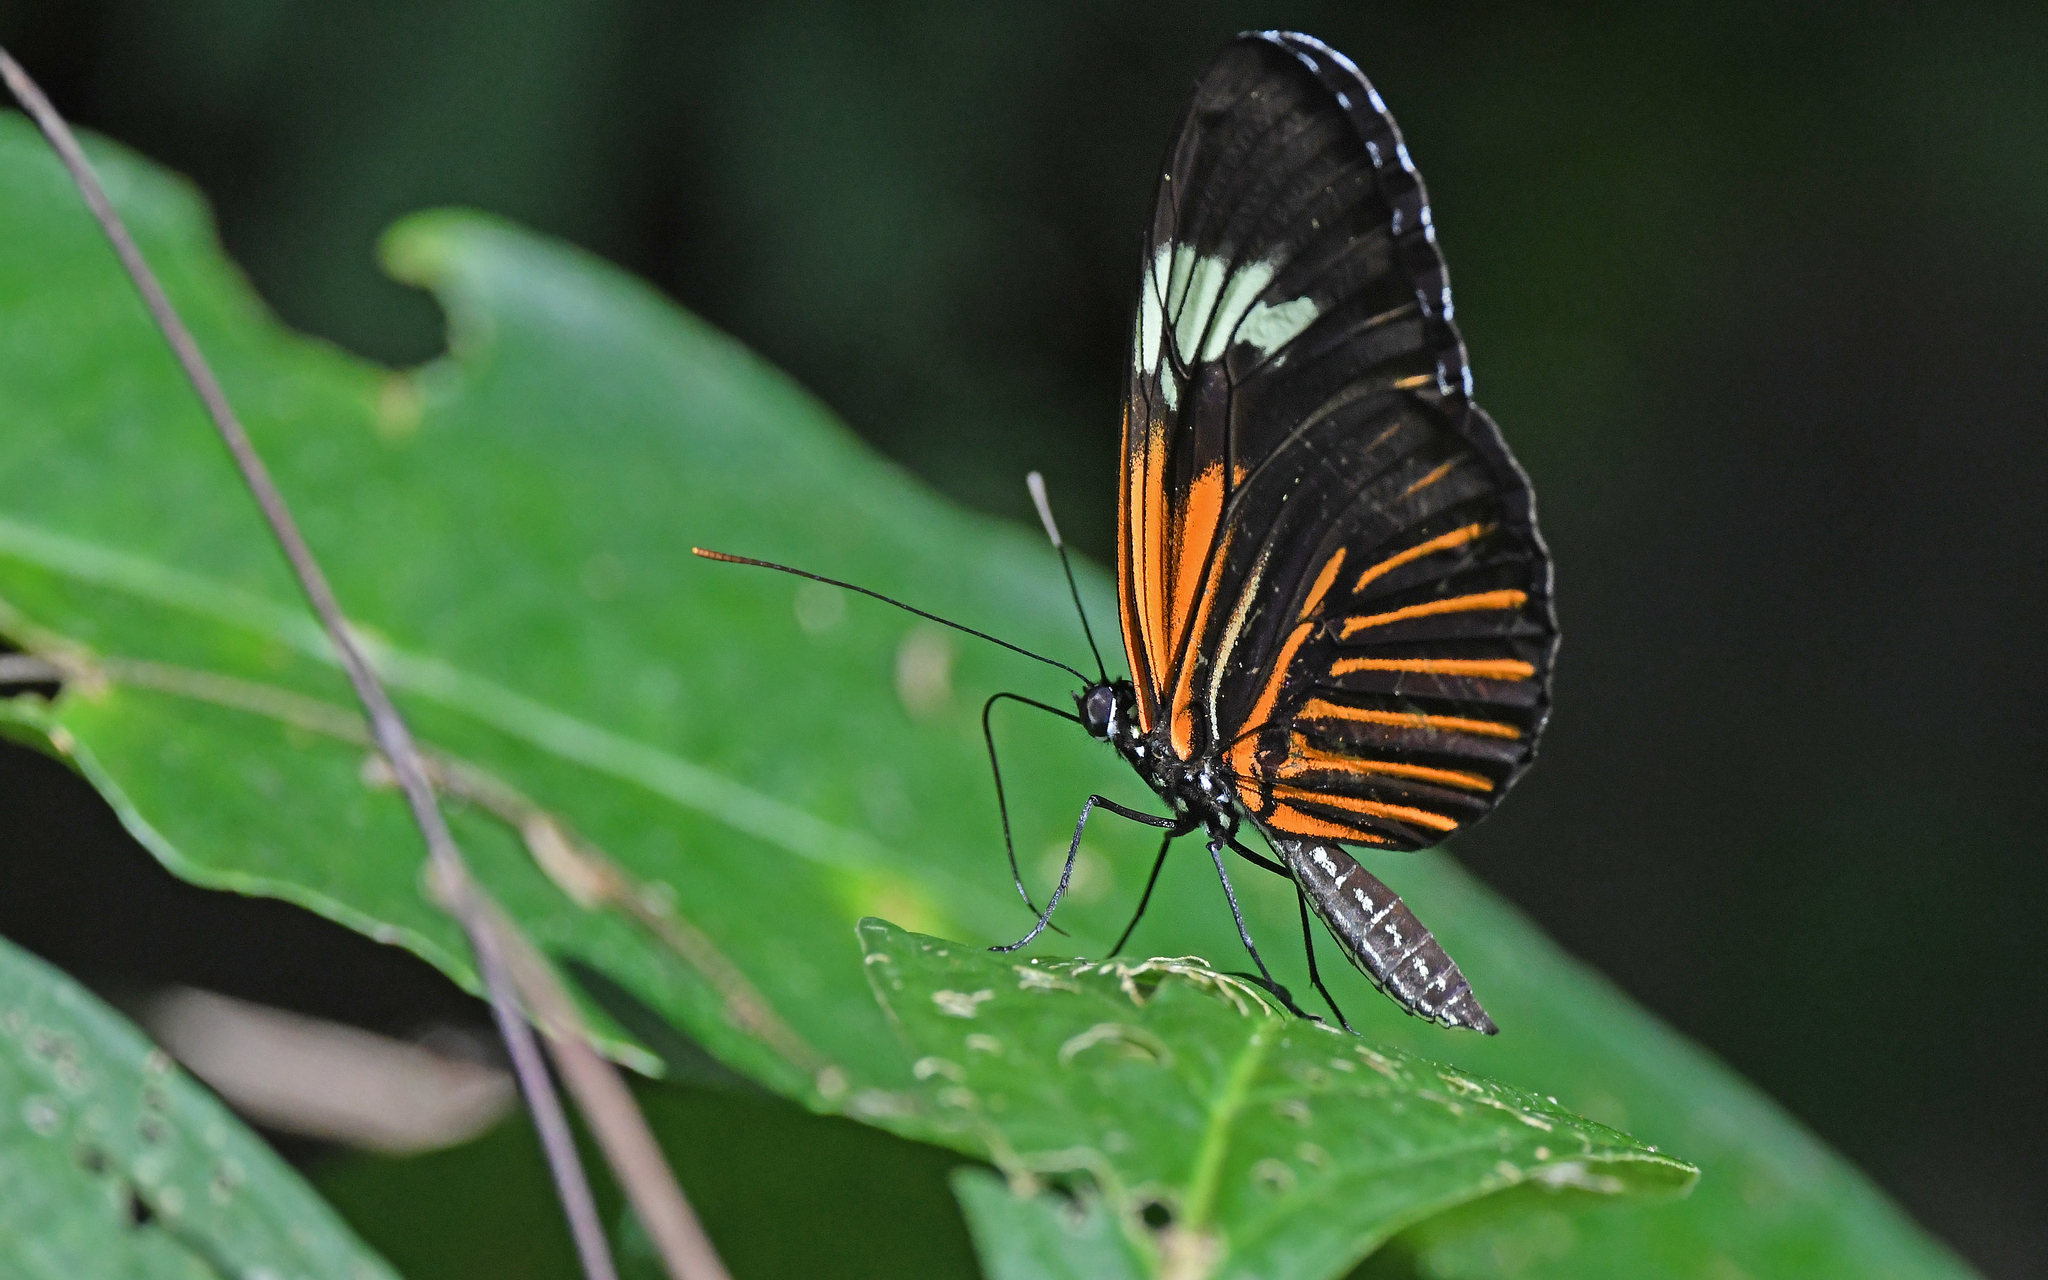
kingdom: Animalia
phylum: Arthropoda
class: Insecta
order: Lepidoptera
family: Nymphalidae
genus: Heliconius
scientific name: Heliconius elevatus
